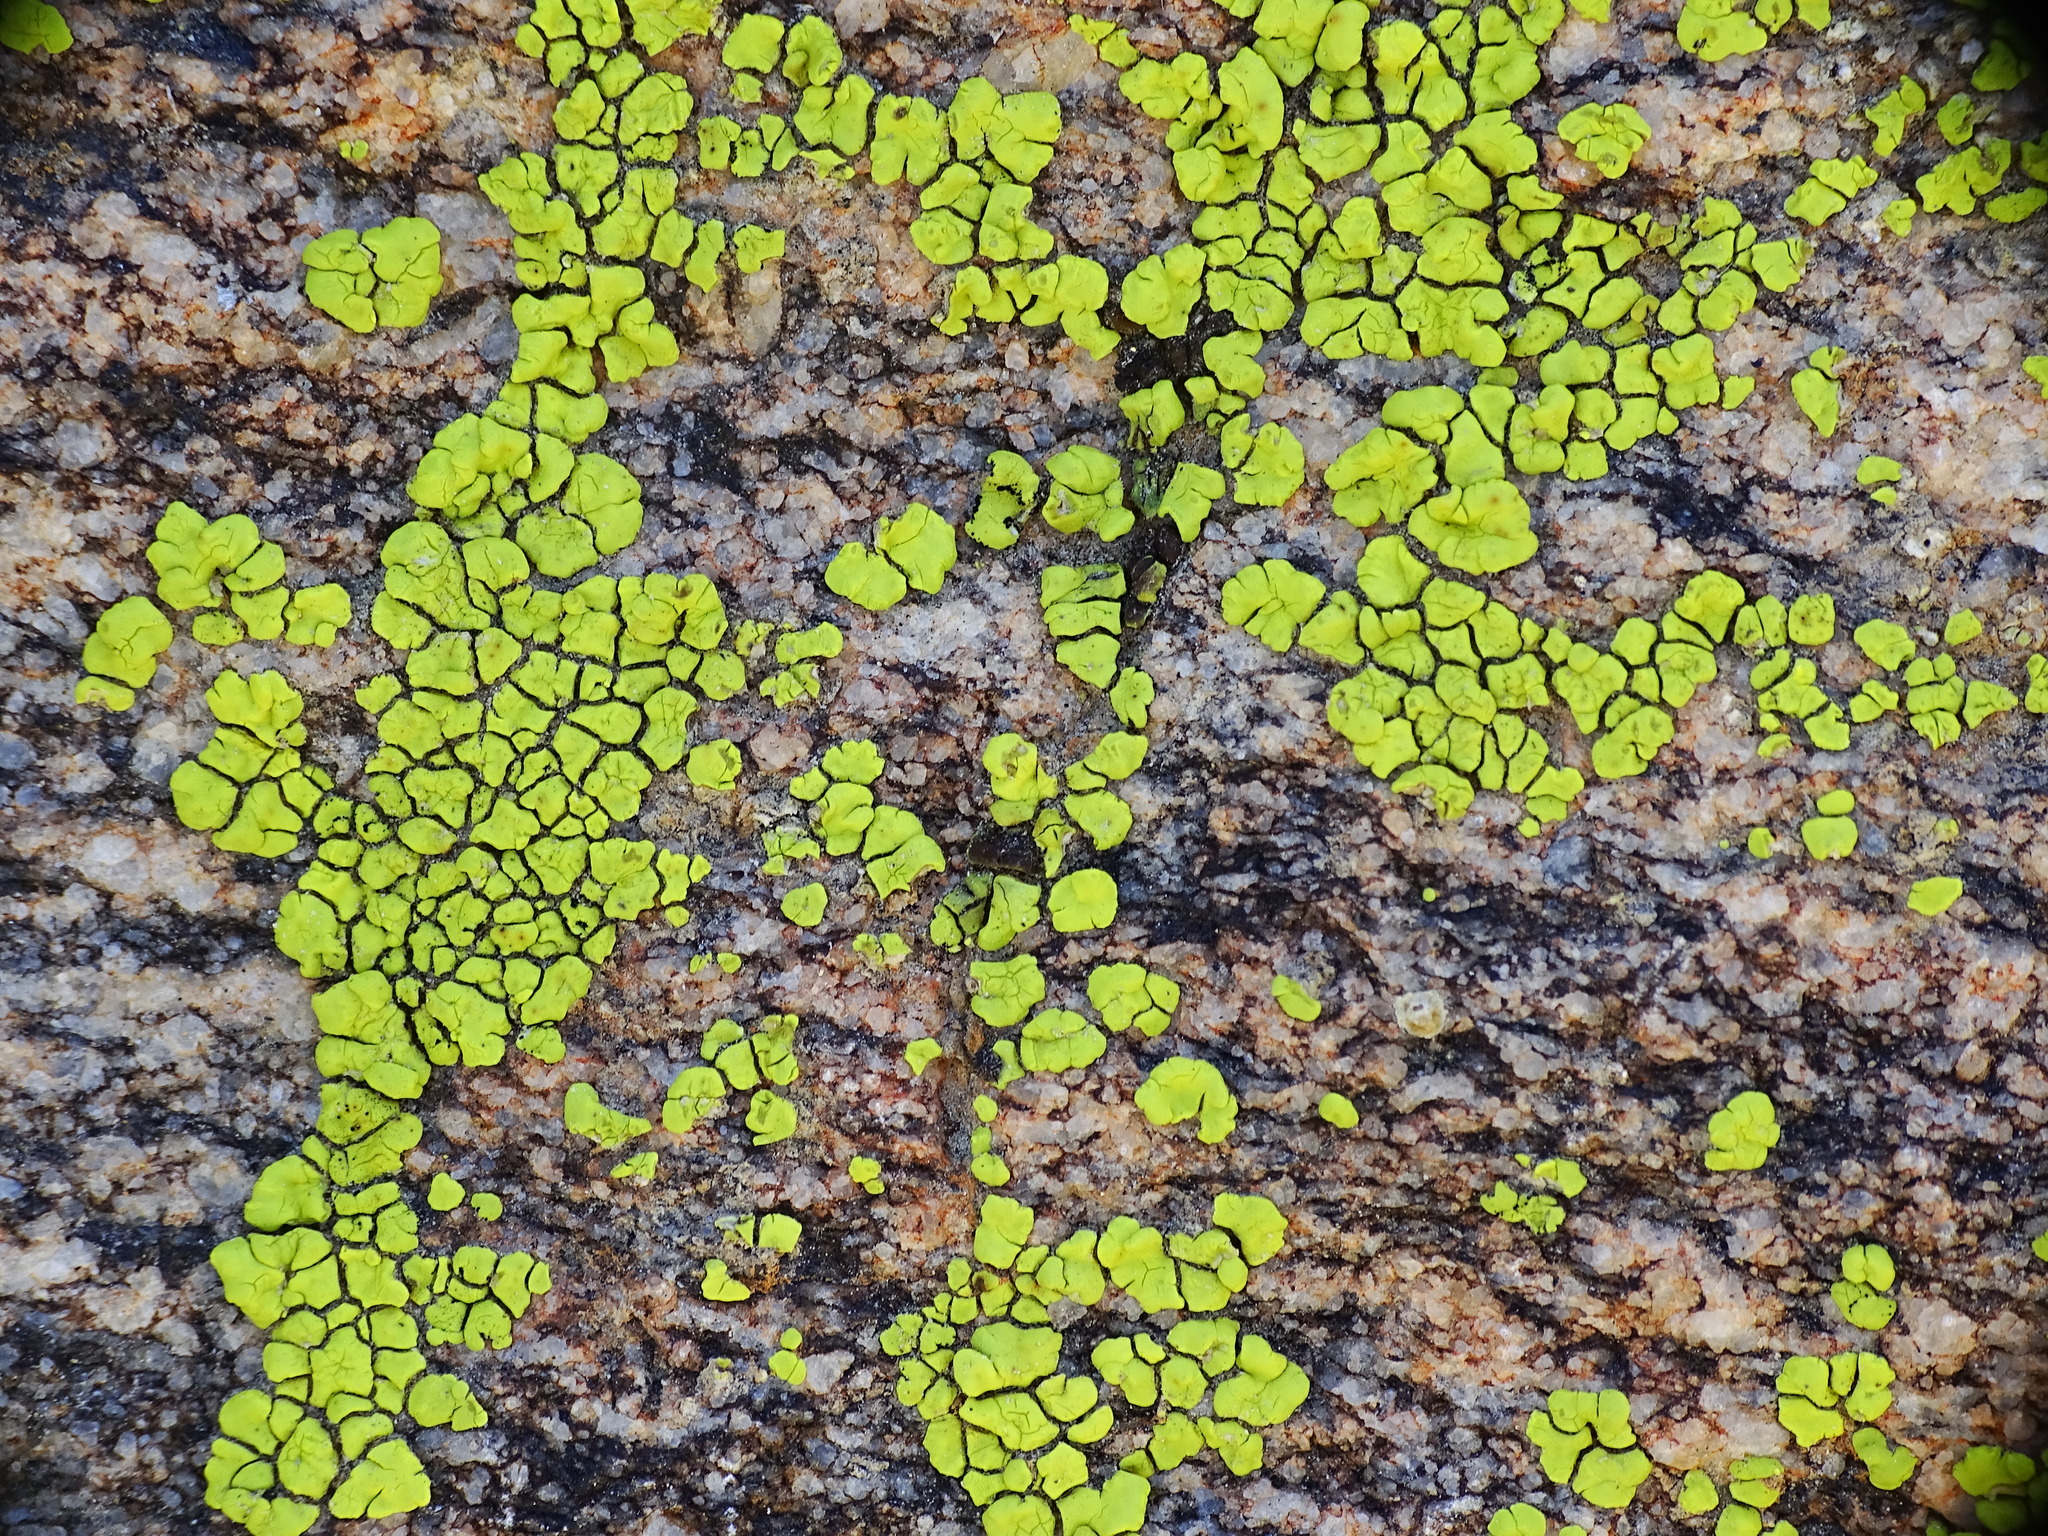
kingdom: Fungi
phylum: Ascomycota
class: Lecanoromycetes
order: Acarosporales
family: Acarosporaceae
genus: Acarospora
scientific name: Acarospora socialis
